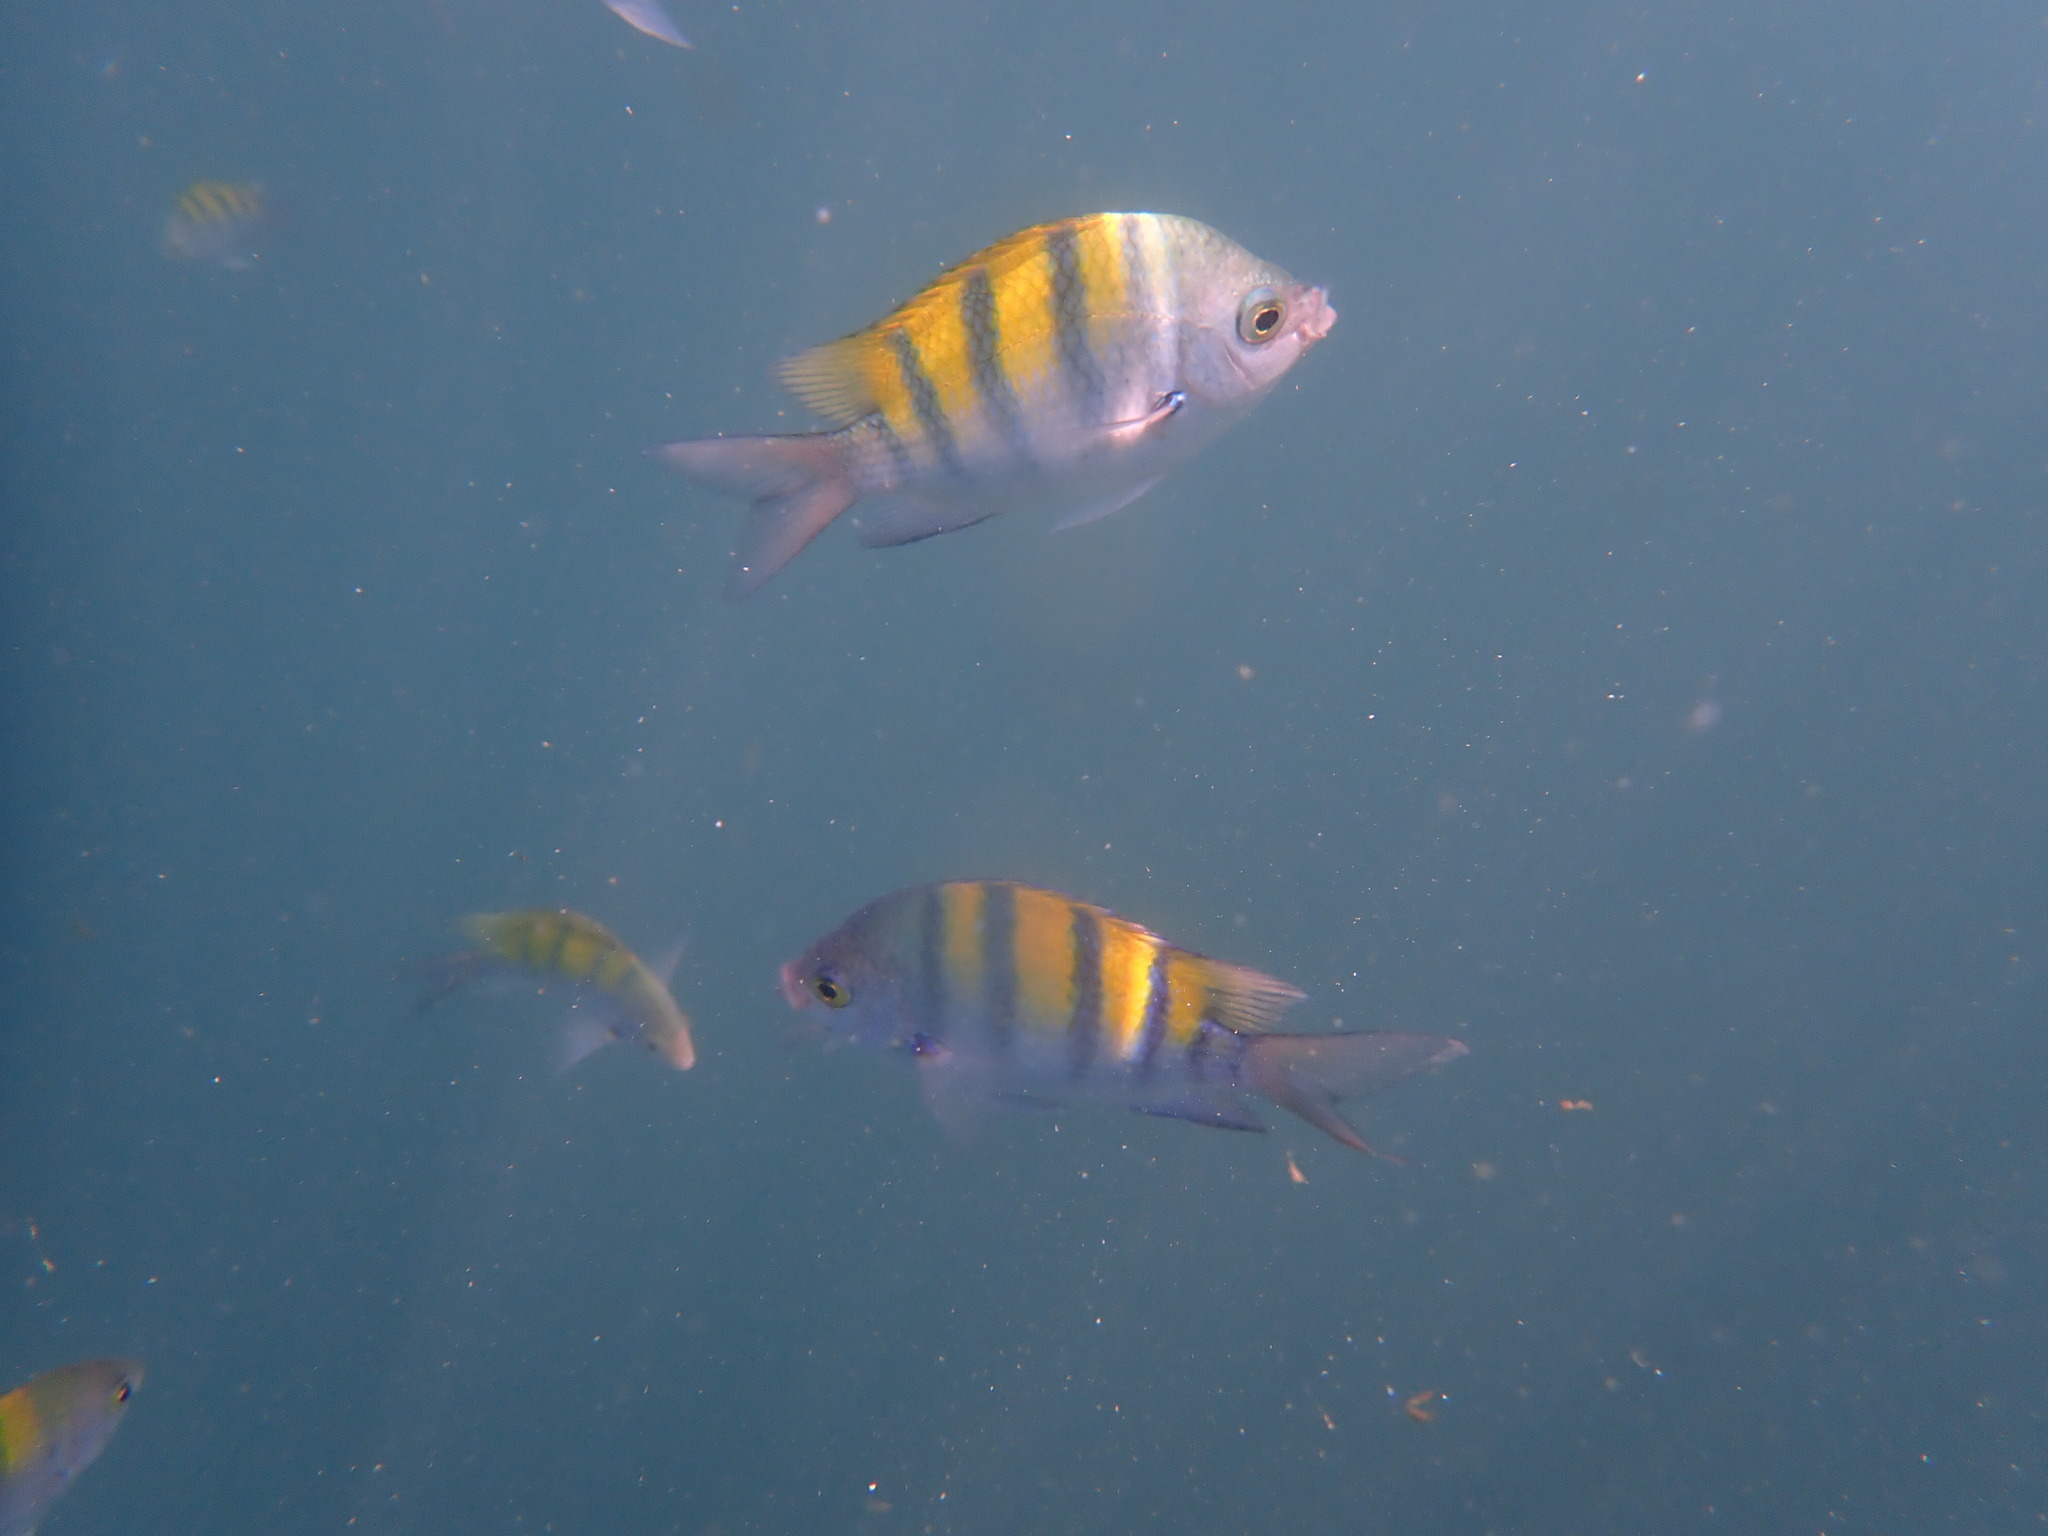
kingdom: Animalia
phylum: Chordata
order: Perciformes
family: Pomacentridae
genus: Abudefduf
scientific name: Abudefduf troschelii
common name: Panamic sergeant major
